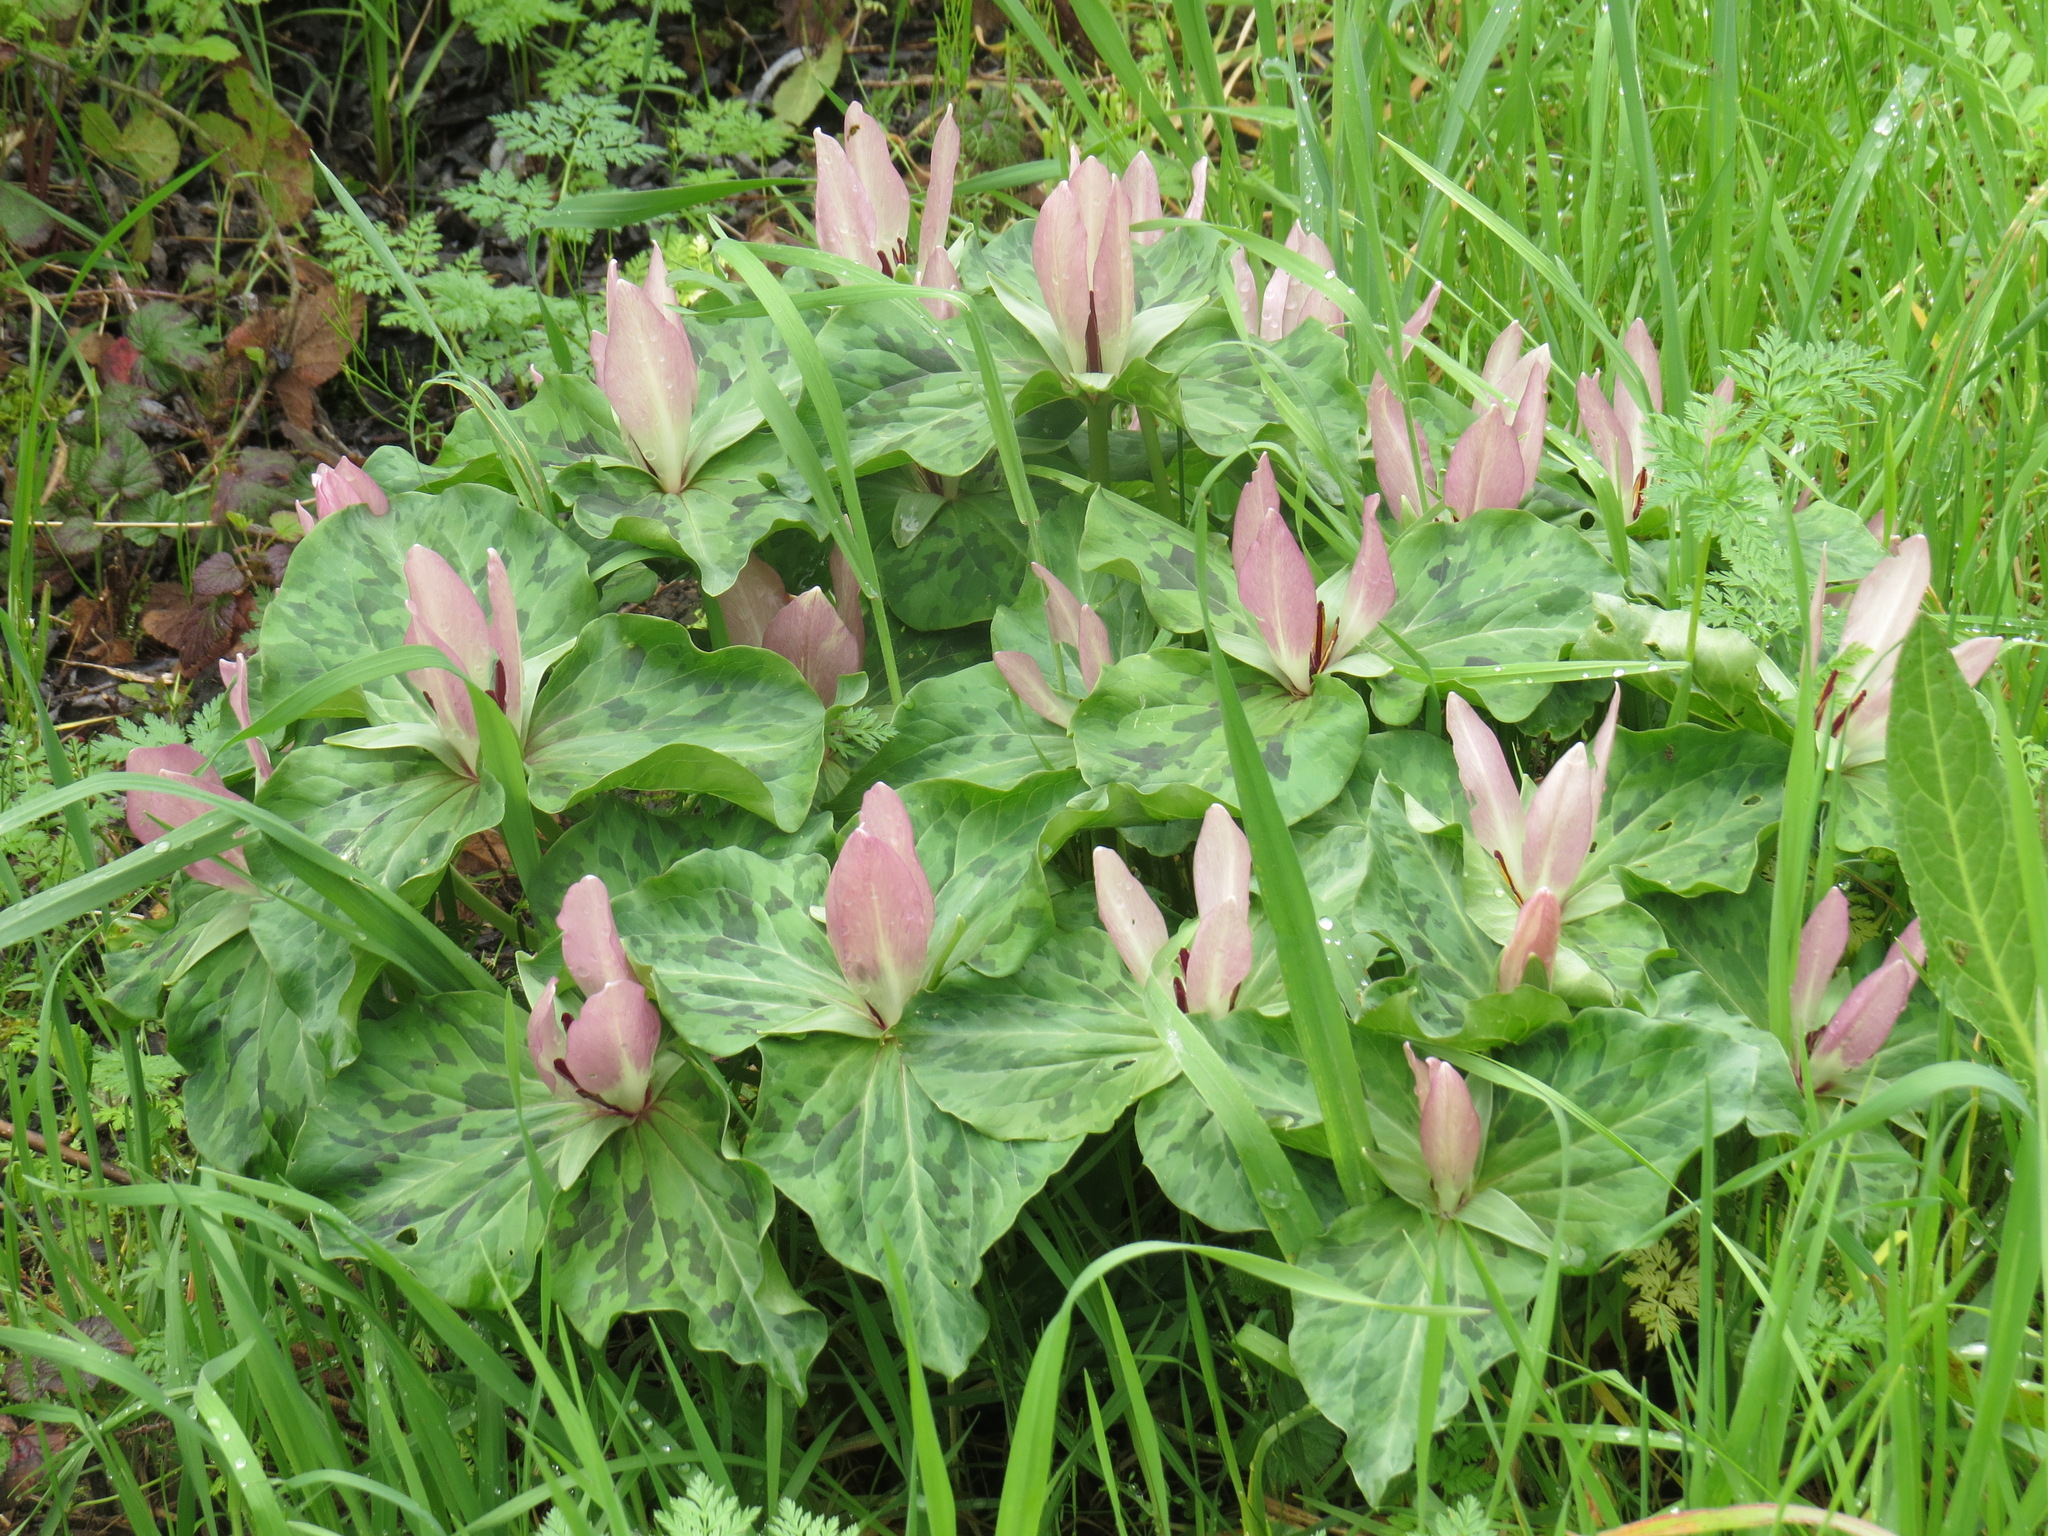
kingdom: Plantae
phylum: Tracheophyta
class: Liliopsida
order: Liliales
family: Melanthiaceae
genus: Trillium
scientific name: Trillium chloropetalum
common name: Giant trillium
